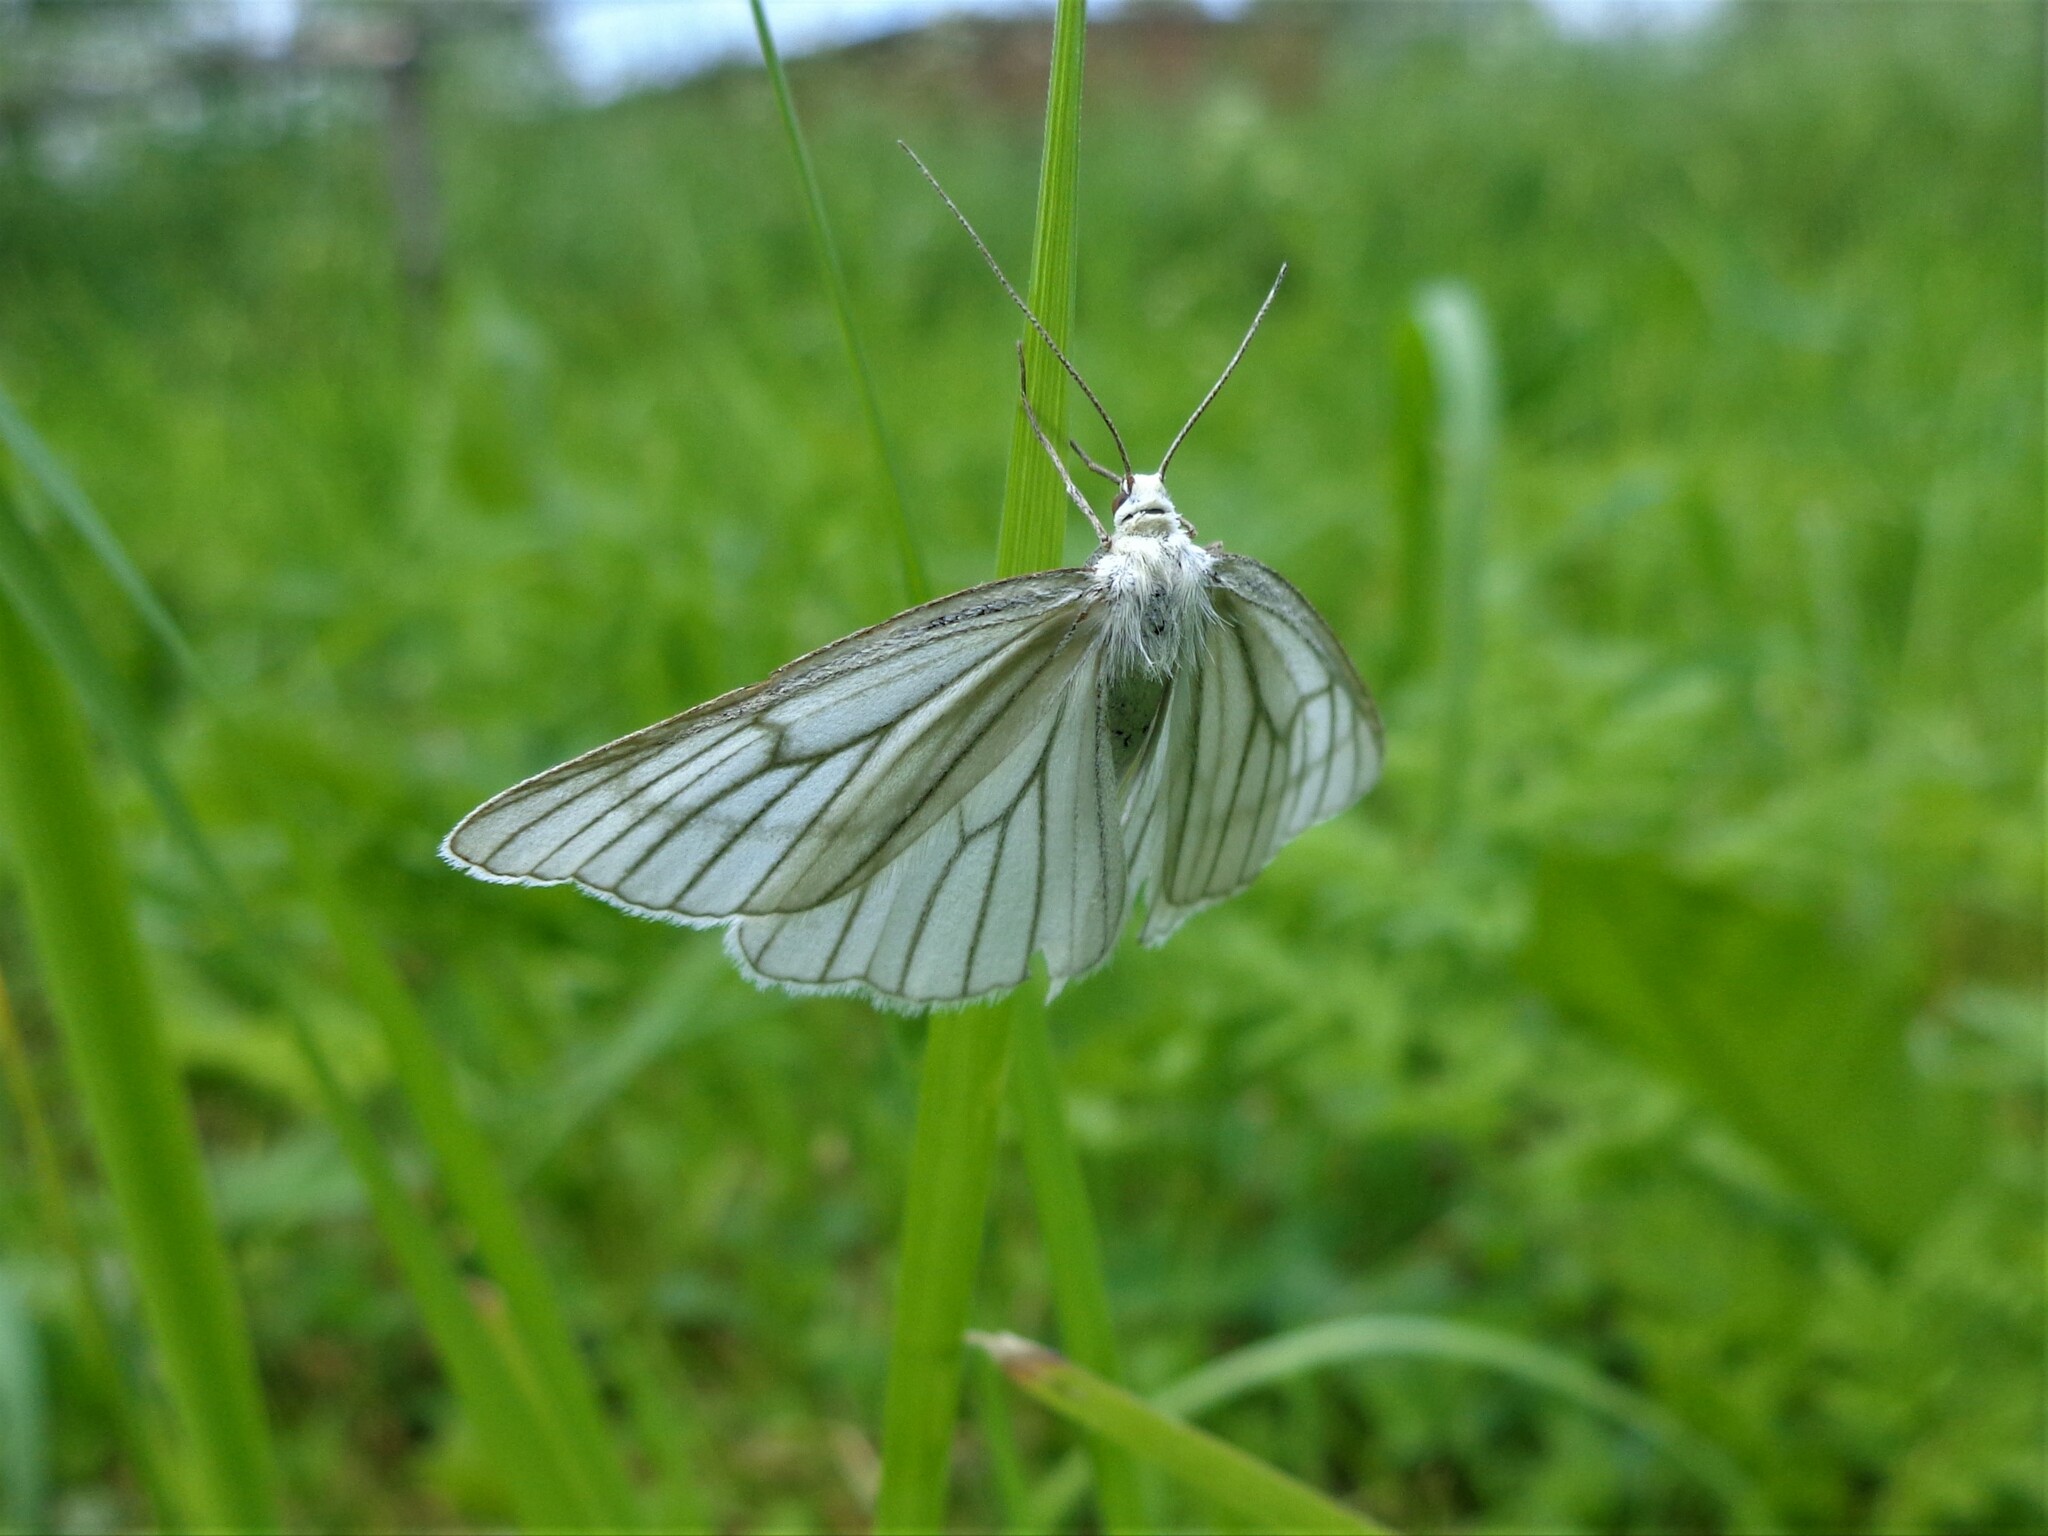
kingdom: Animalia
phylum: Arthropoda
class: Insecta
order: Lepidoptera
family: Geometridae
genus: Siona
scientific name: Siona lineata
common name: Black-veined moth
